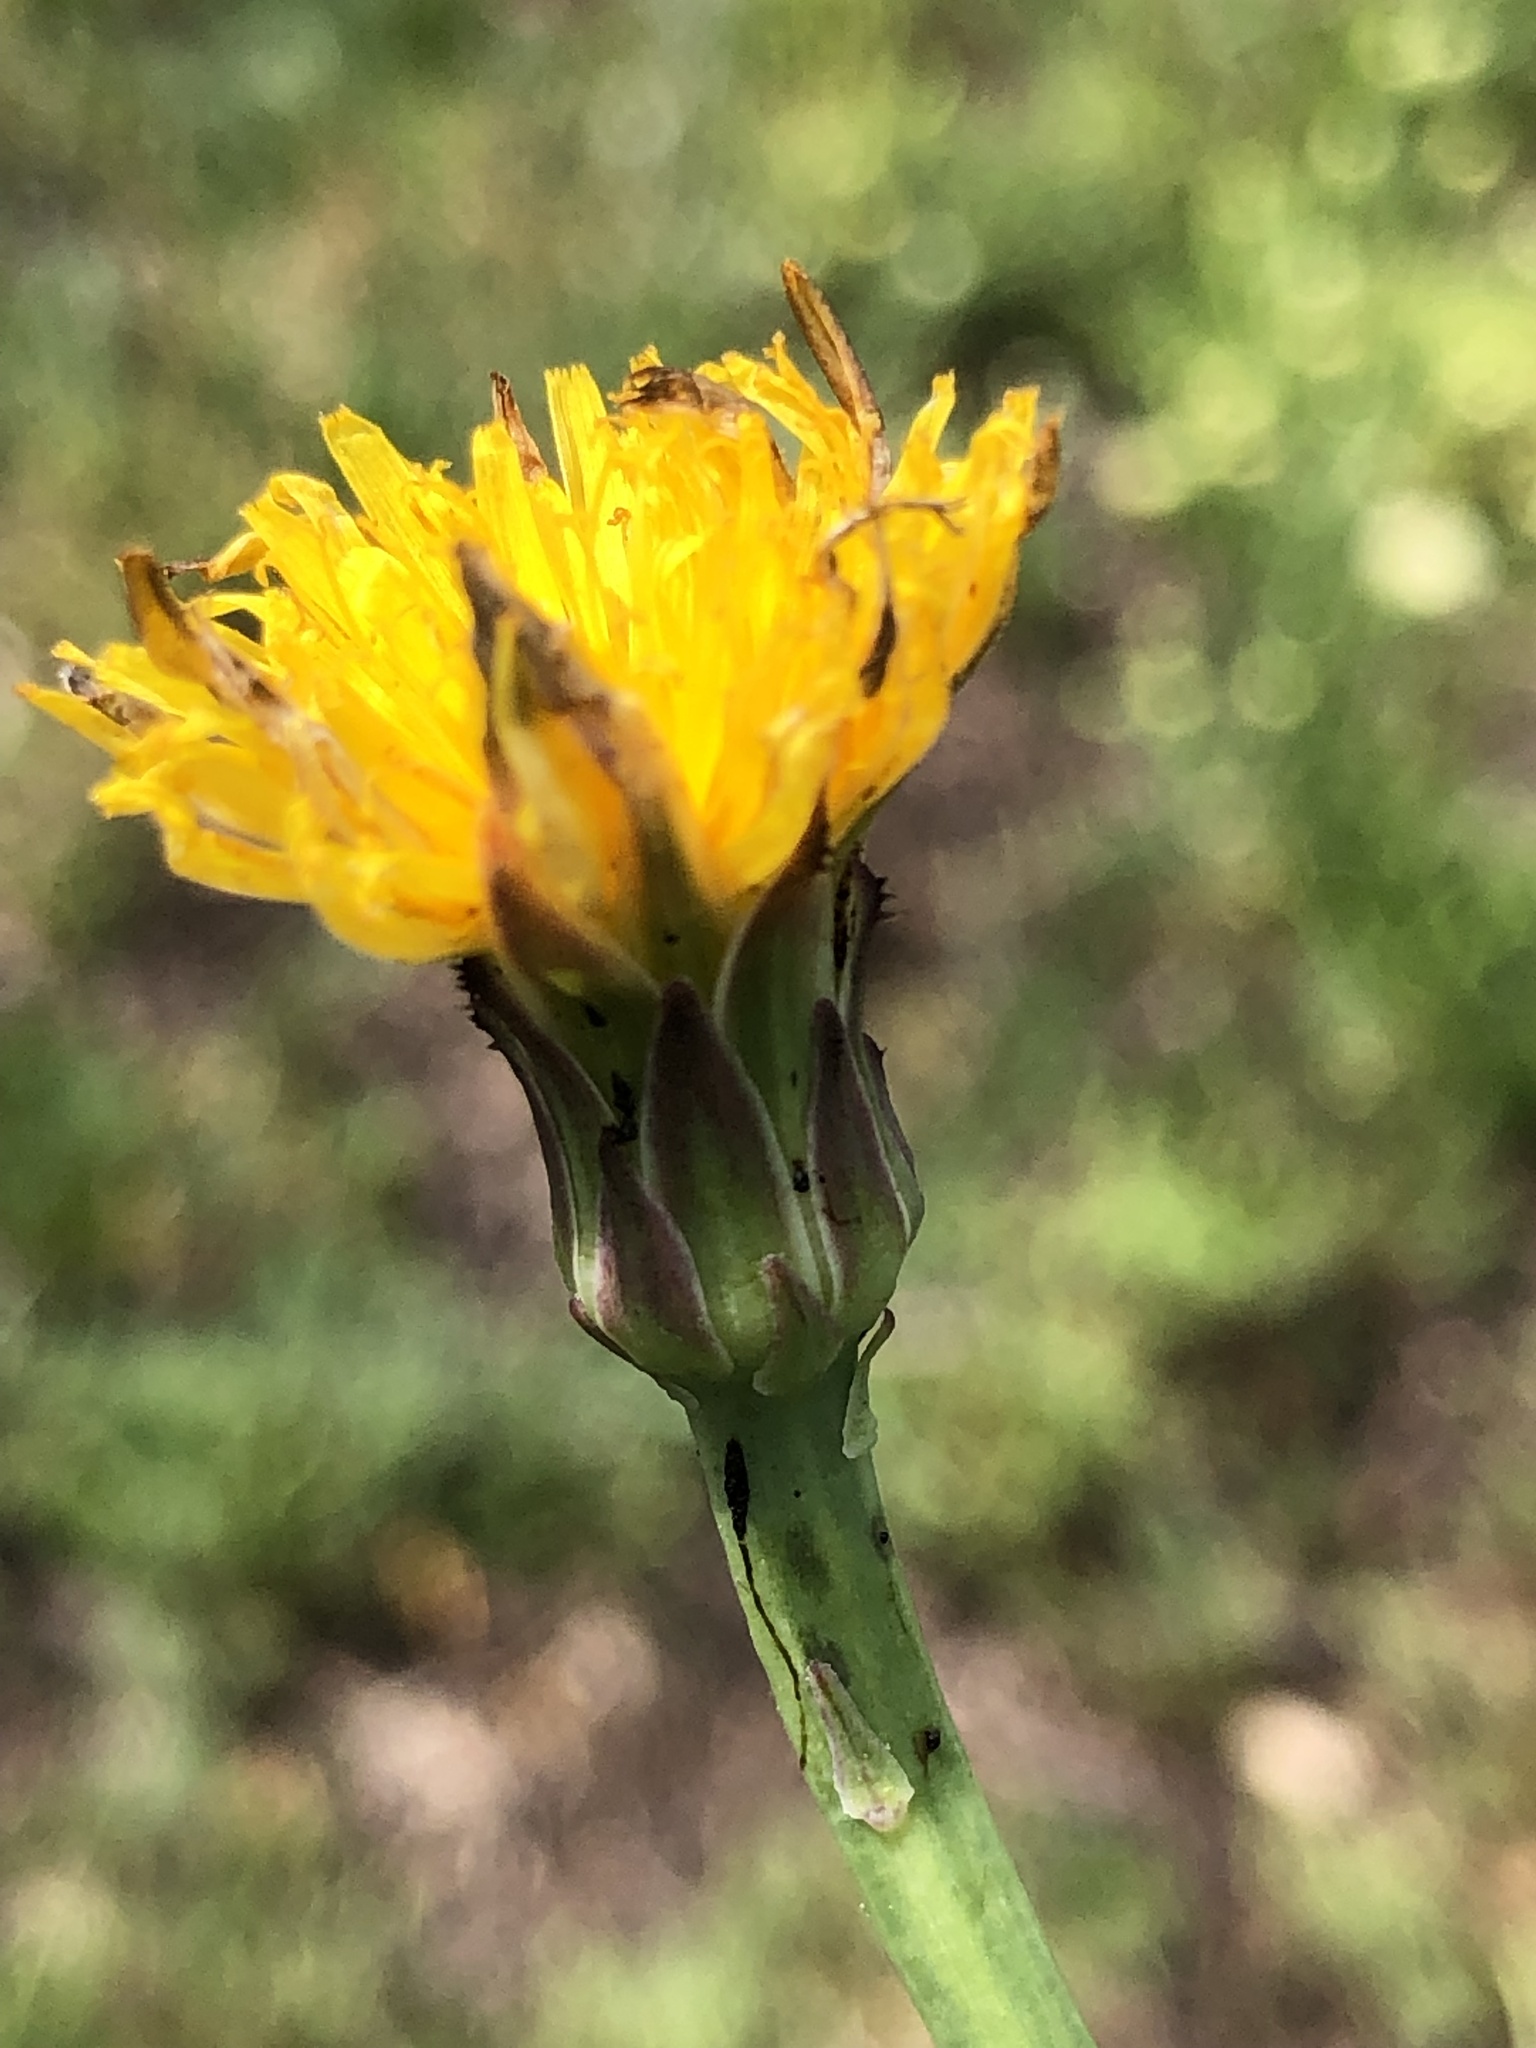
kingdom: Plantae
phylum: Tracheophyta
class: Magnoliopsida
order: Asterales
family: Asteraceae
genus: Hypochaeris
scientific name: Hypochaeris radicata
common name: Flatweed
